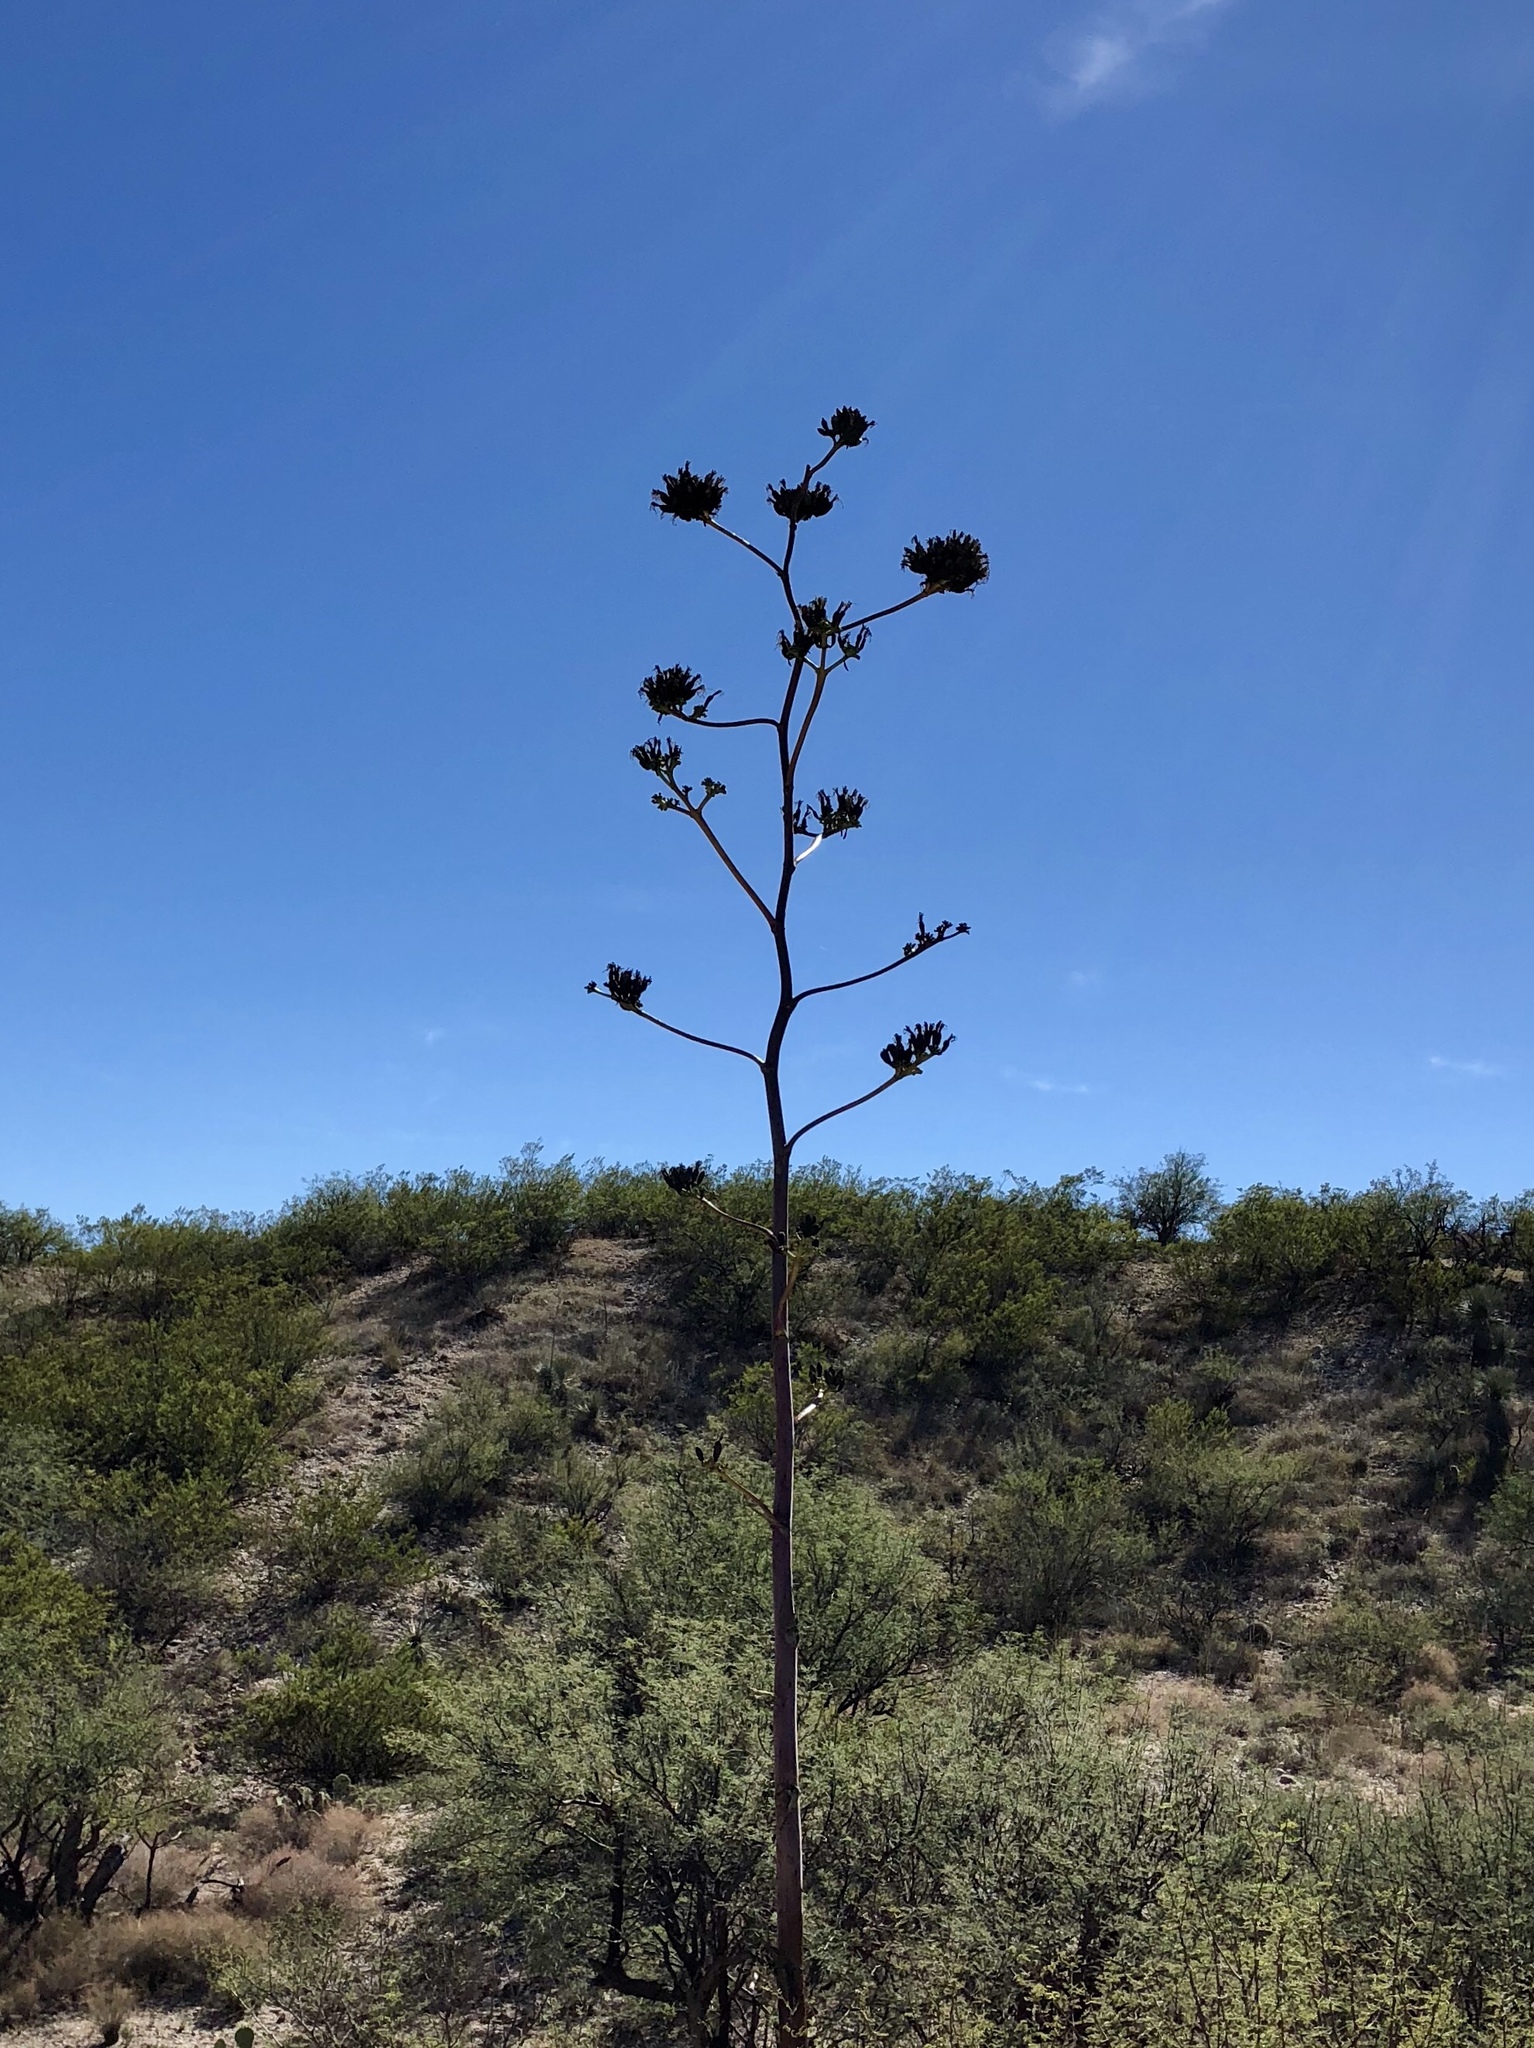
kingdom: Plantae
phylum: Tracheophyta
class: Liliopsida
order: Asparagales
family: Asparagaceae
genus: Agave
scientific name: Agave palmeri
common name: Palmer agave
